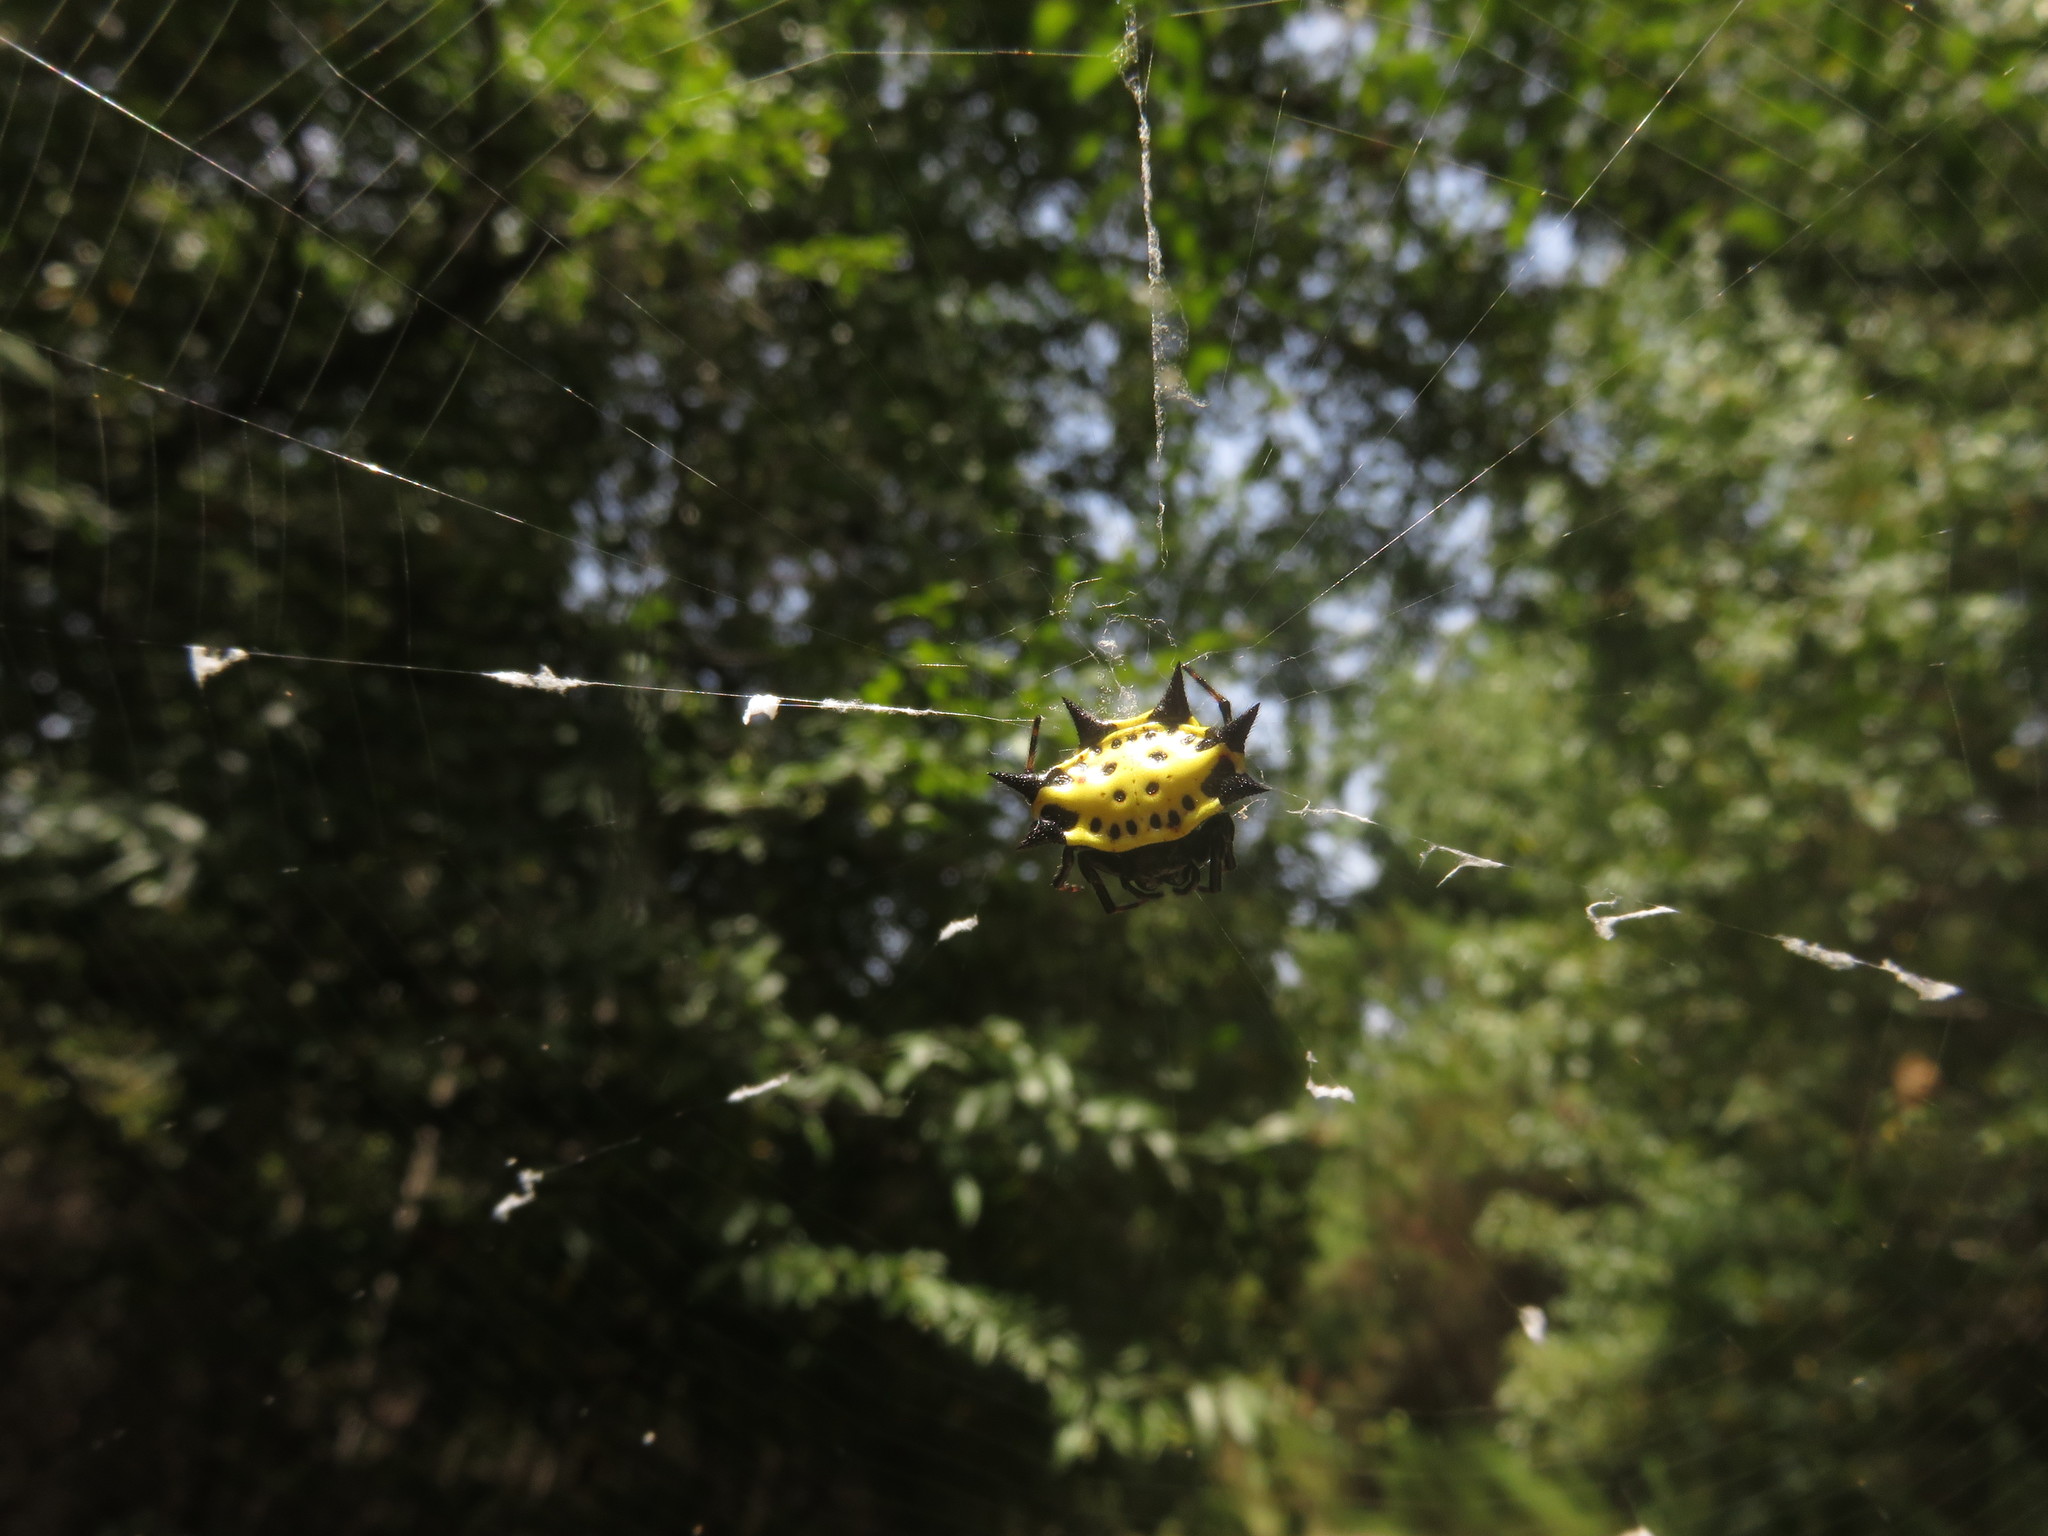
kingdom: Animalia
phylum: Arthropoda
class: Arachnida
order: Araneae
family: Araneidae
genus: Gasteracantha
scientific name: Gasteracantha cancriformis
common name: Orb weavers
